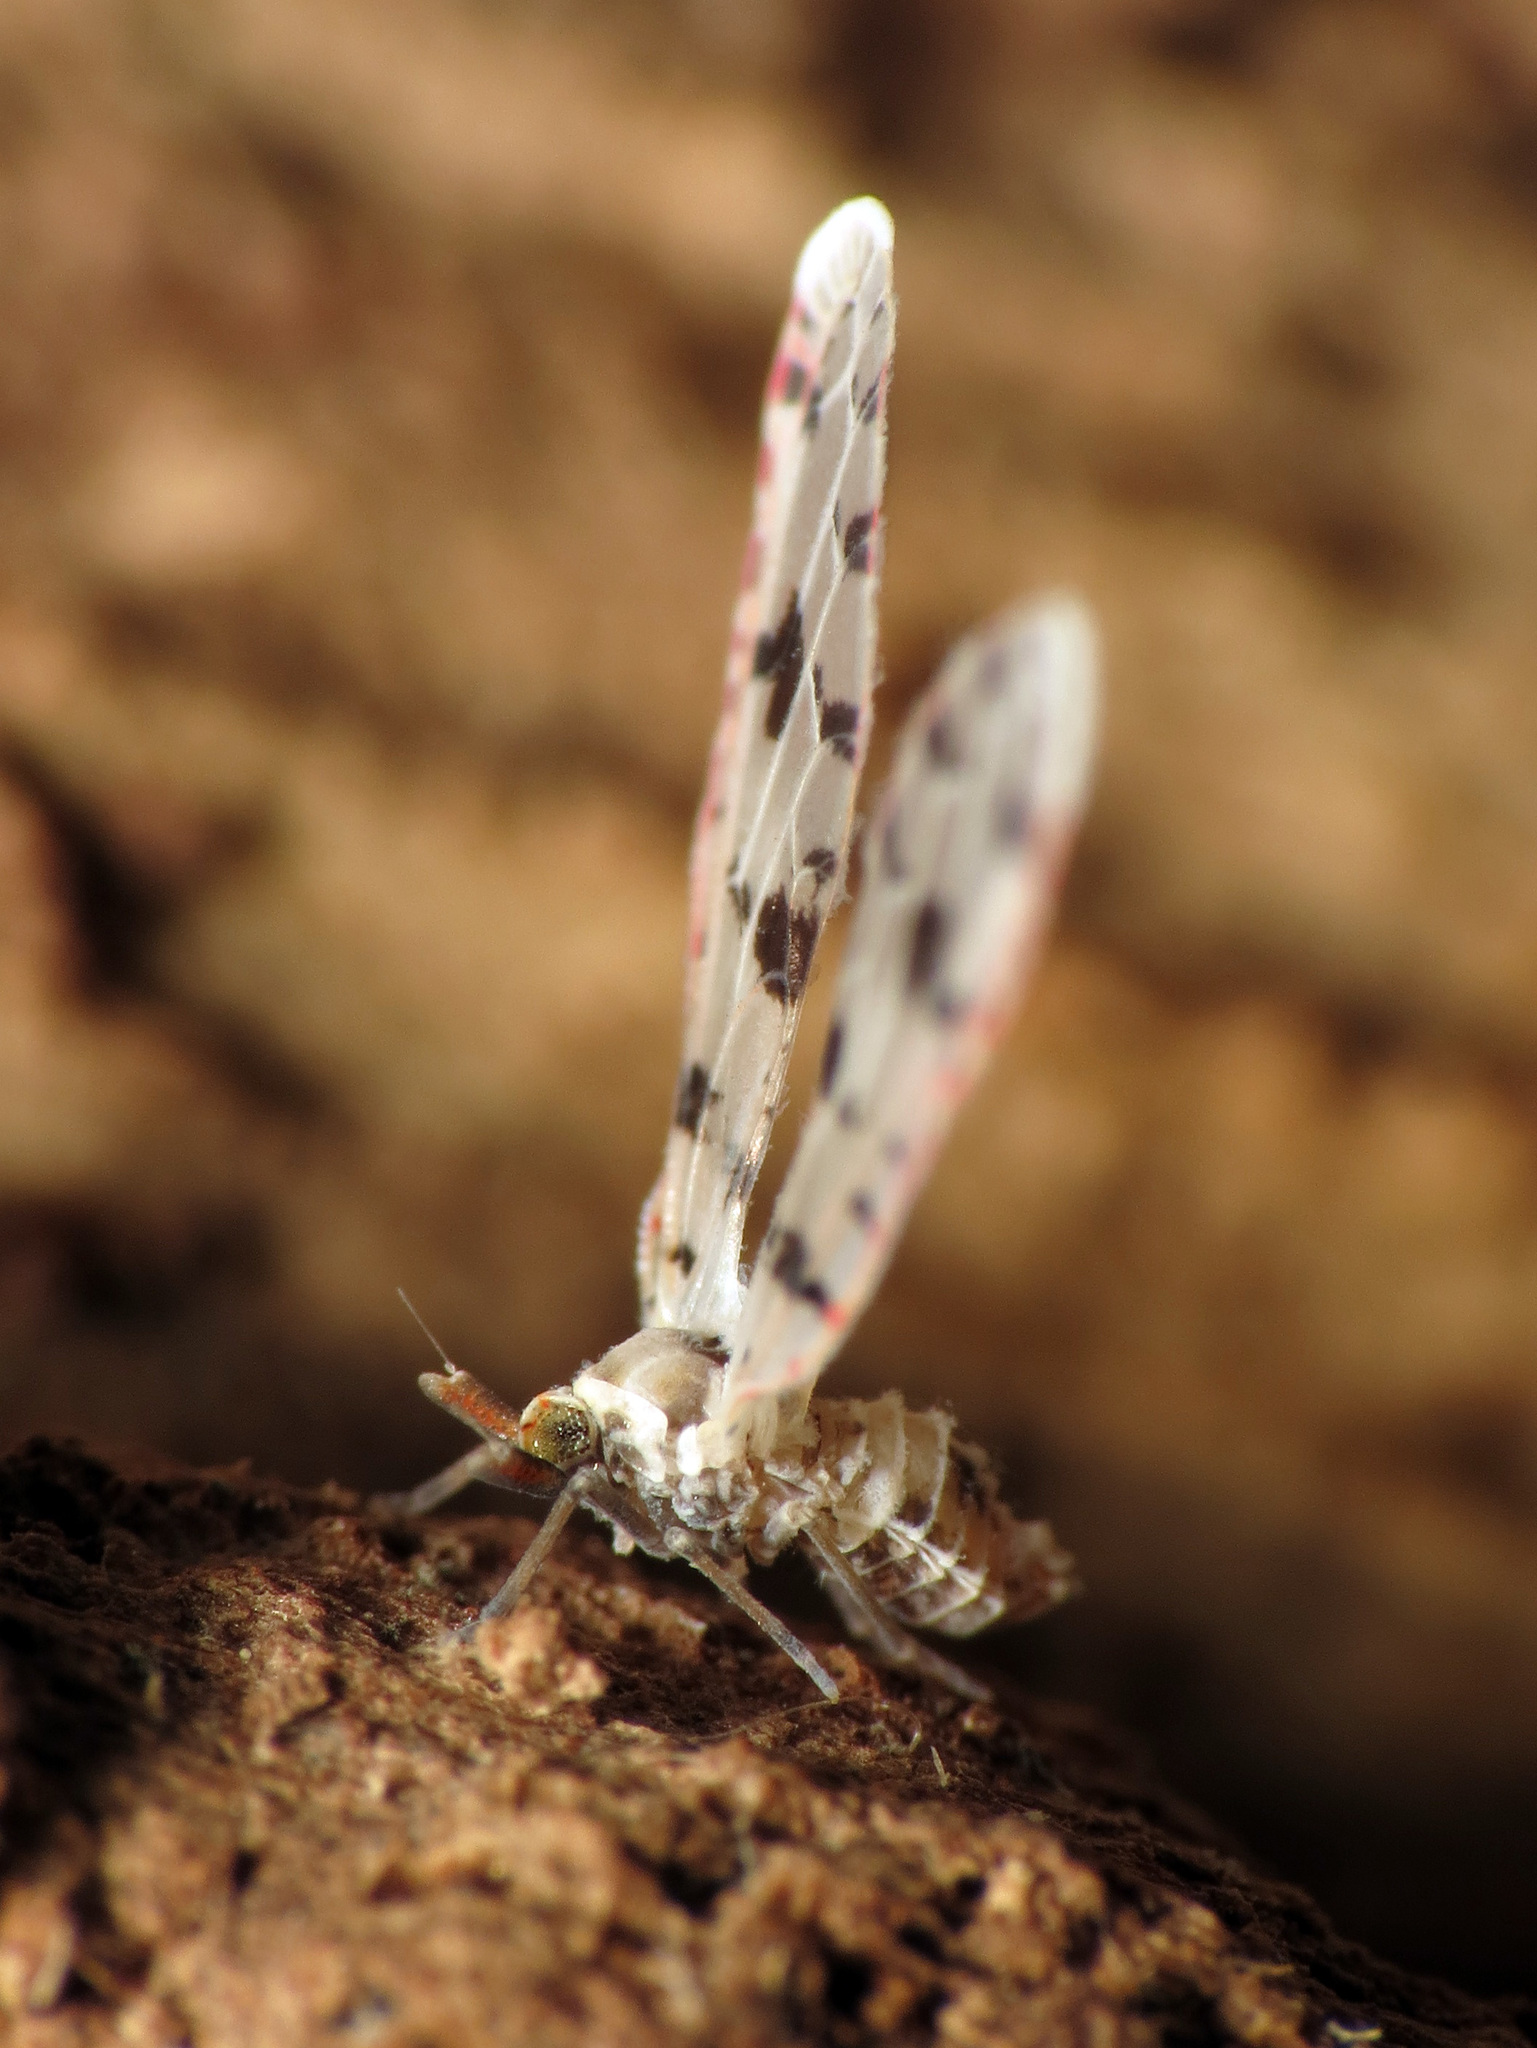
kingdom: Animalia
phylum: Arthropoda
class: Insecta
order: Hemiptera
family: Derbidae
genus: Sikaiana
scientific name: Sikaiana harti
